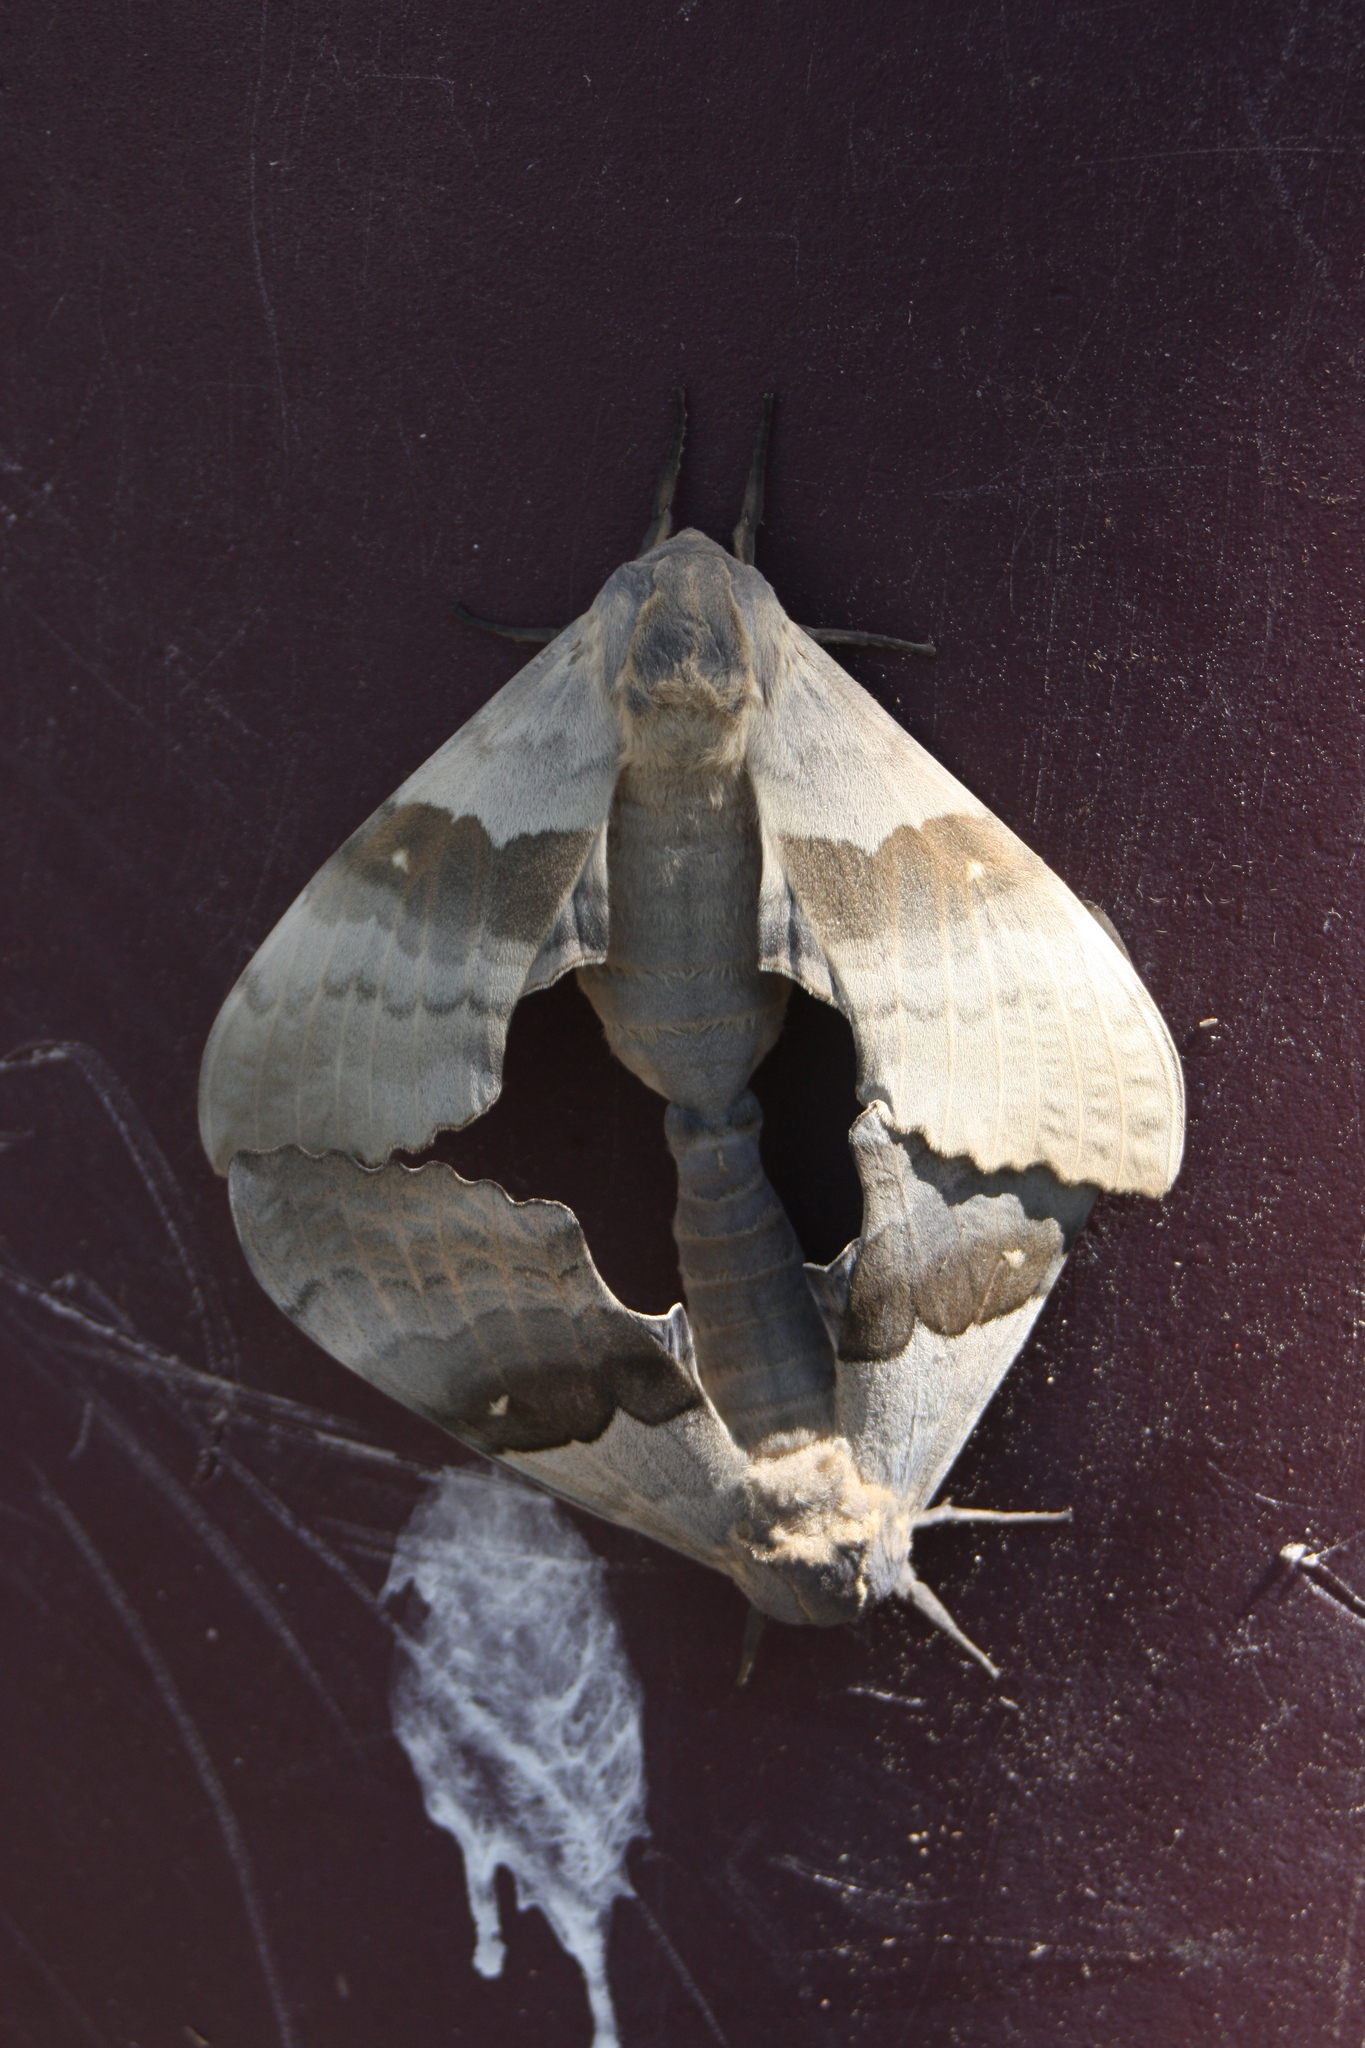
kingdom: Animalia
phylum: Arthropoda
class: Insecta
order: Lepidoptera
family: Sphingidae
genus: Pachysphinx
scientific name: Pachysphinx occidentalis
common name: Western poplar sphinx
